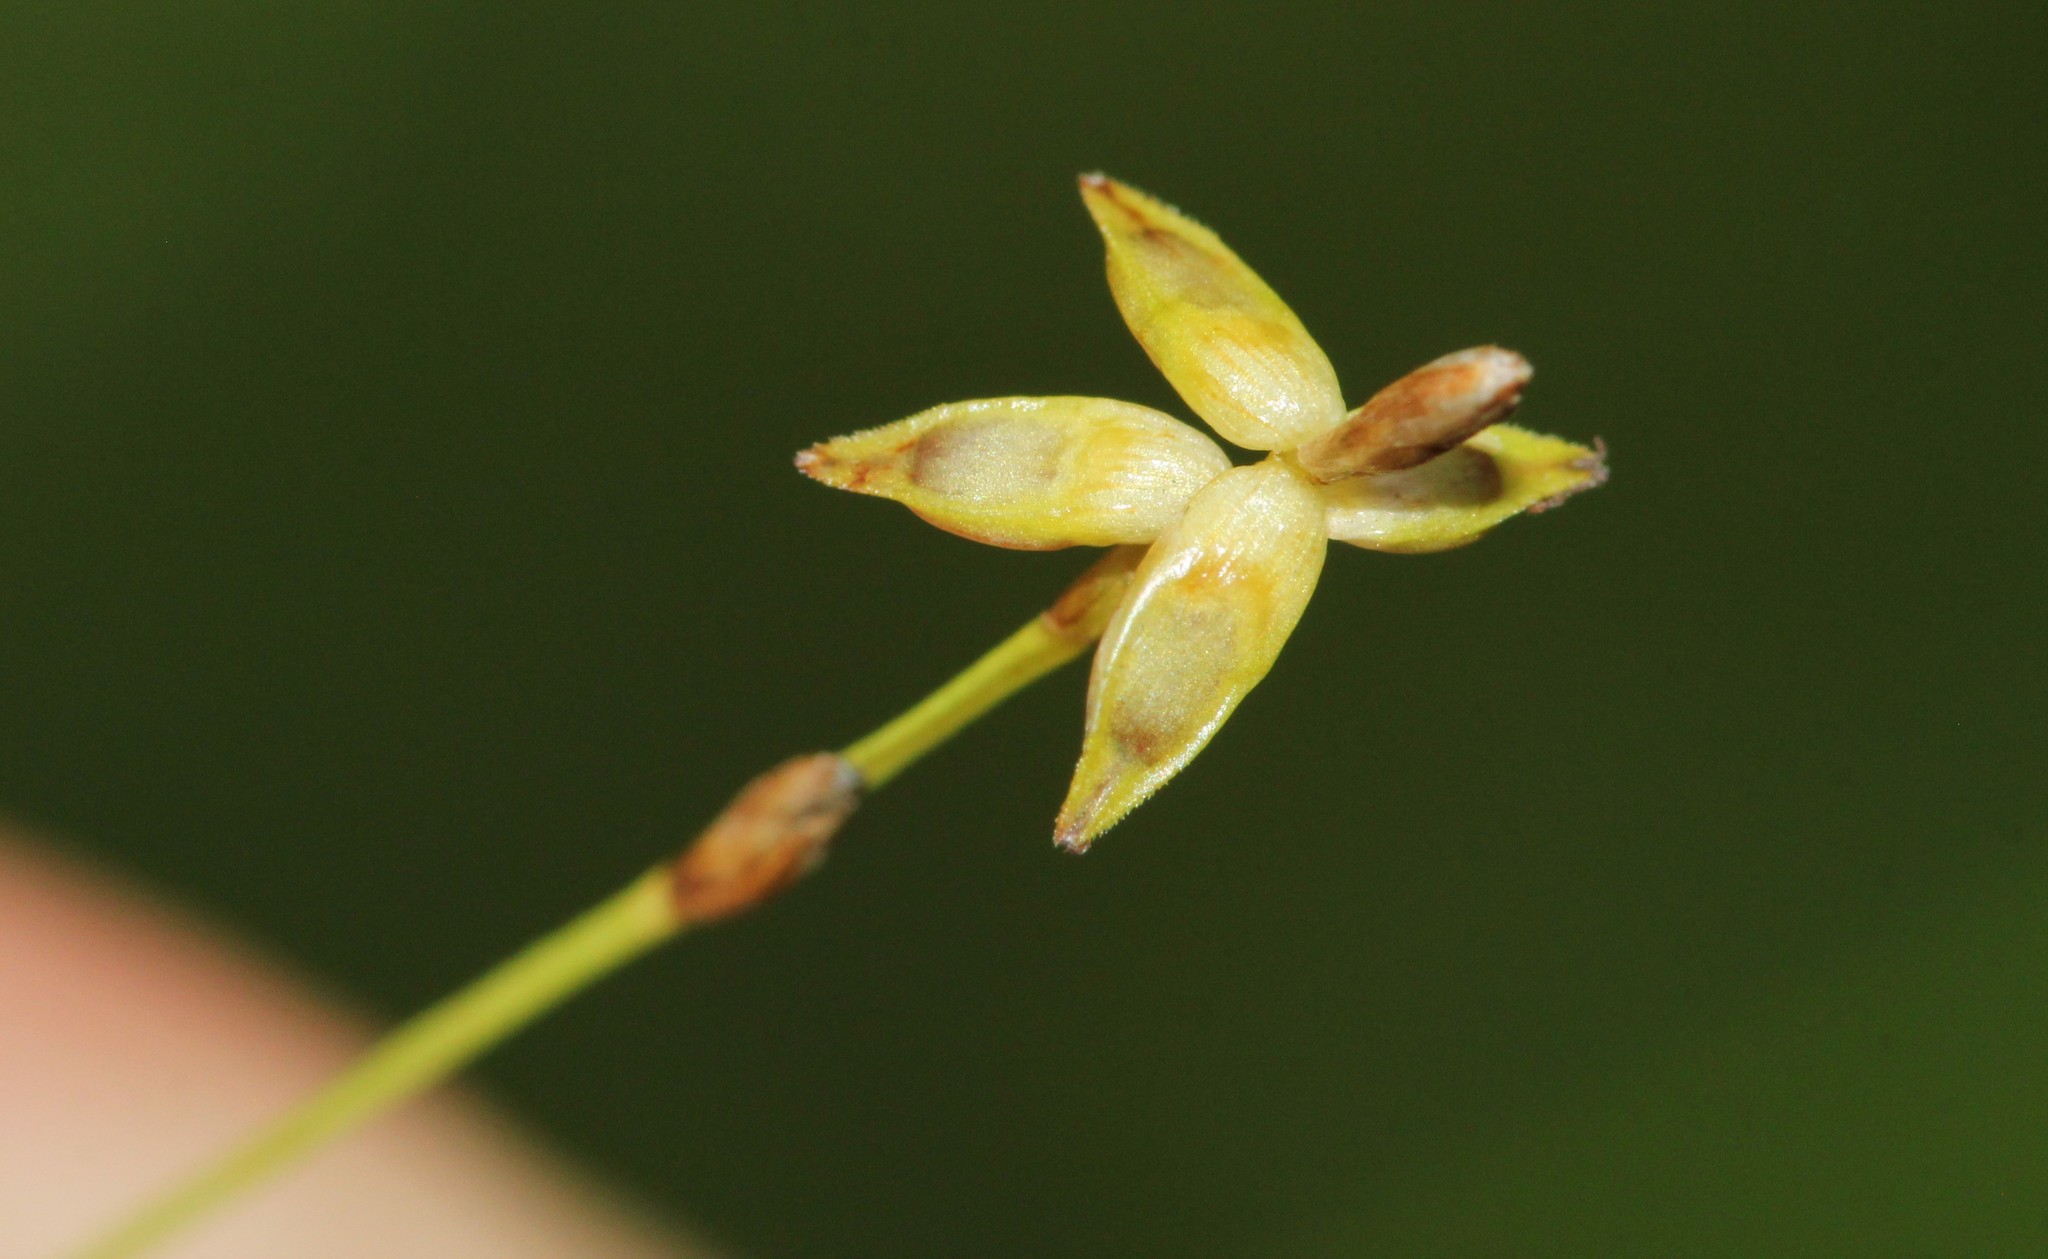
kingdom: Plantae
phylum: Tracheophyta
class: Liliopsida
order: Poales
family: Cyperaceae
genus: Carex
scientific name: Carex radiata
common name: Eastern star sedge
